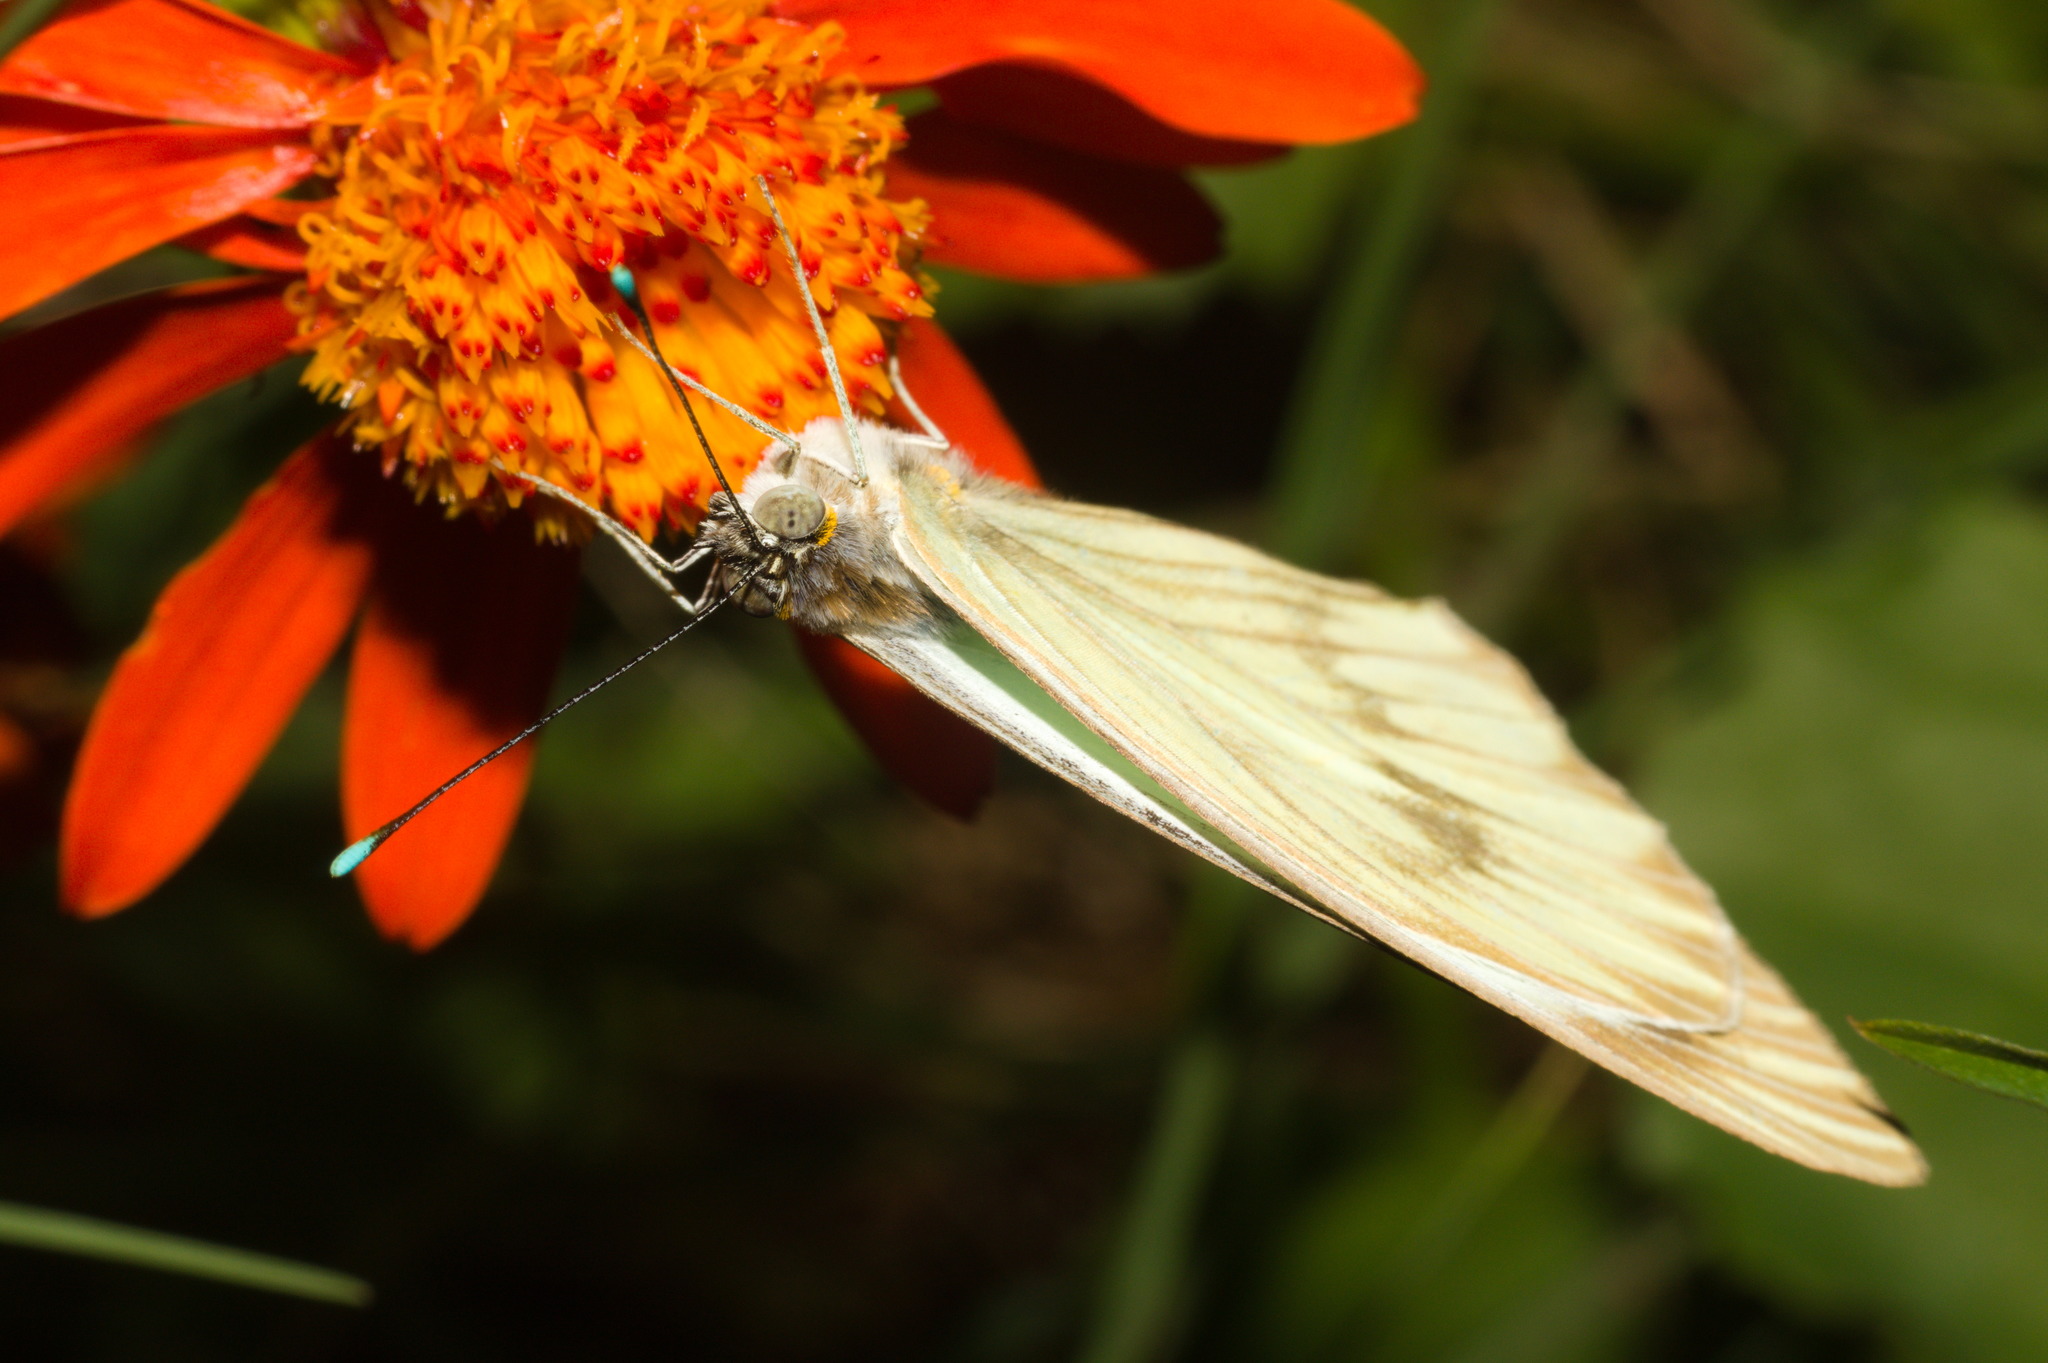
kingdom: Animalia
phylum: Arthropoda
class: Insecta
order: Lepidoptera
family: Pieridae
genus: Ascia
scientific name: Ascia monuste
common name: Great southern white
